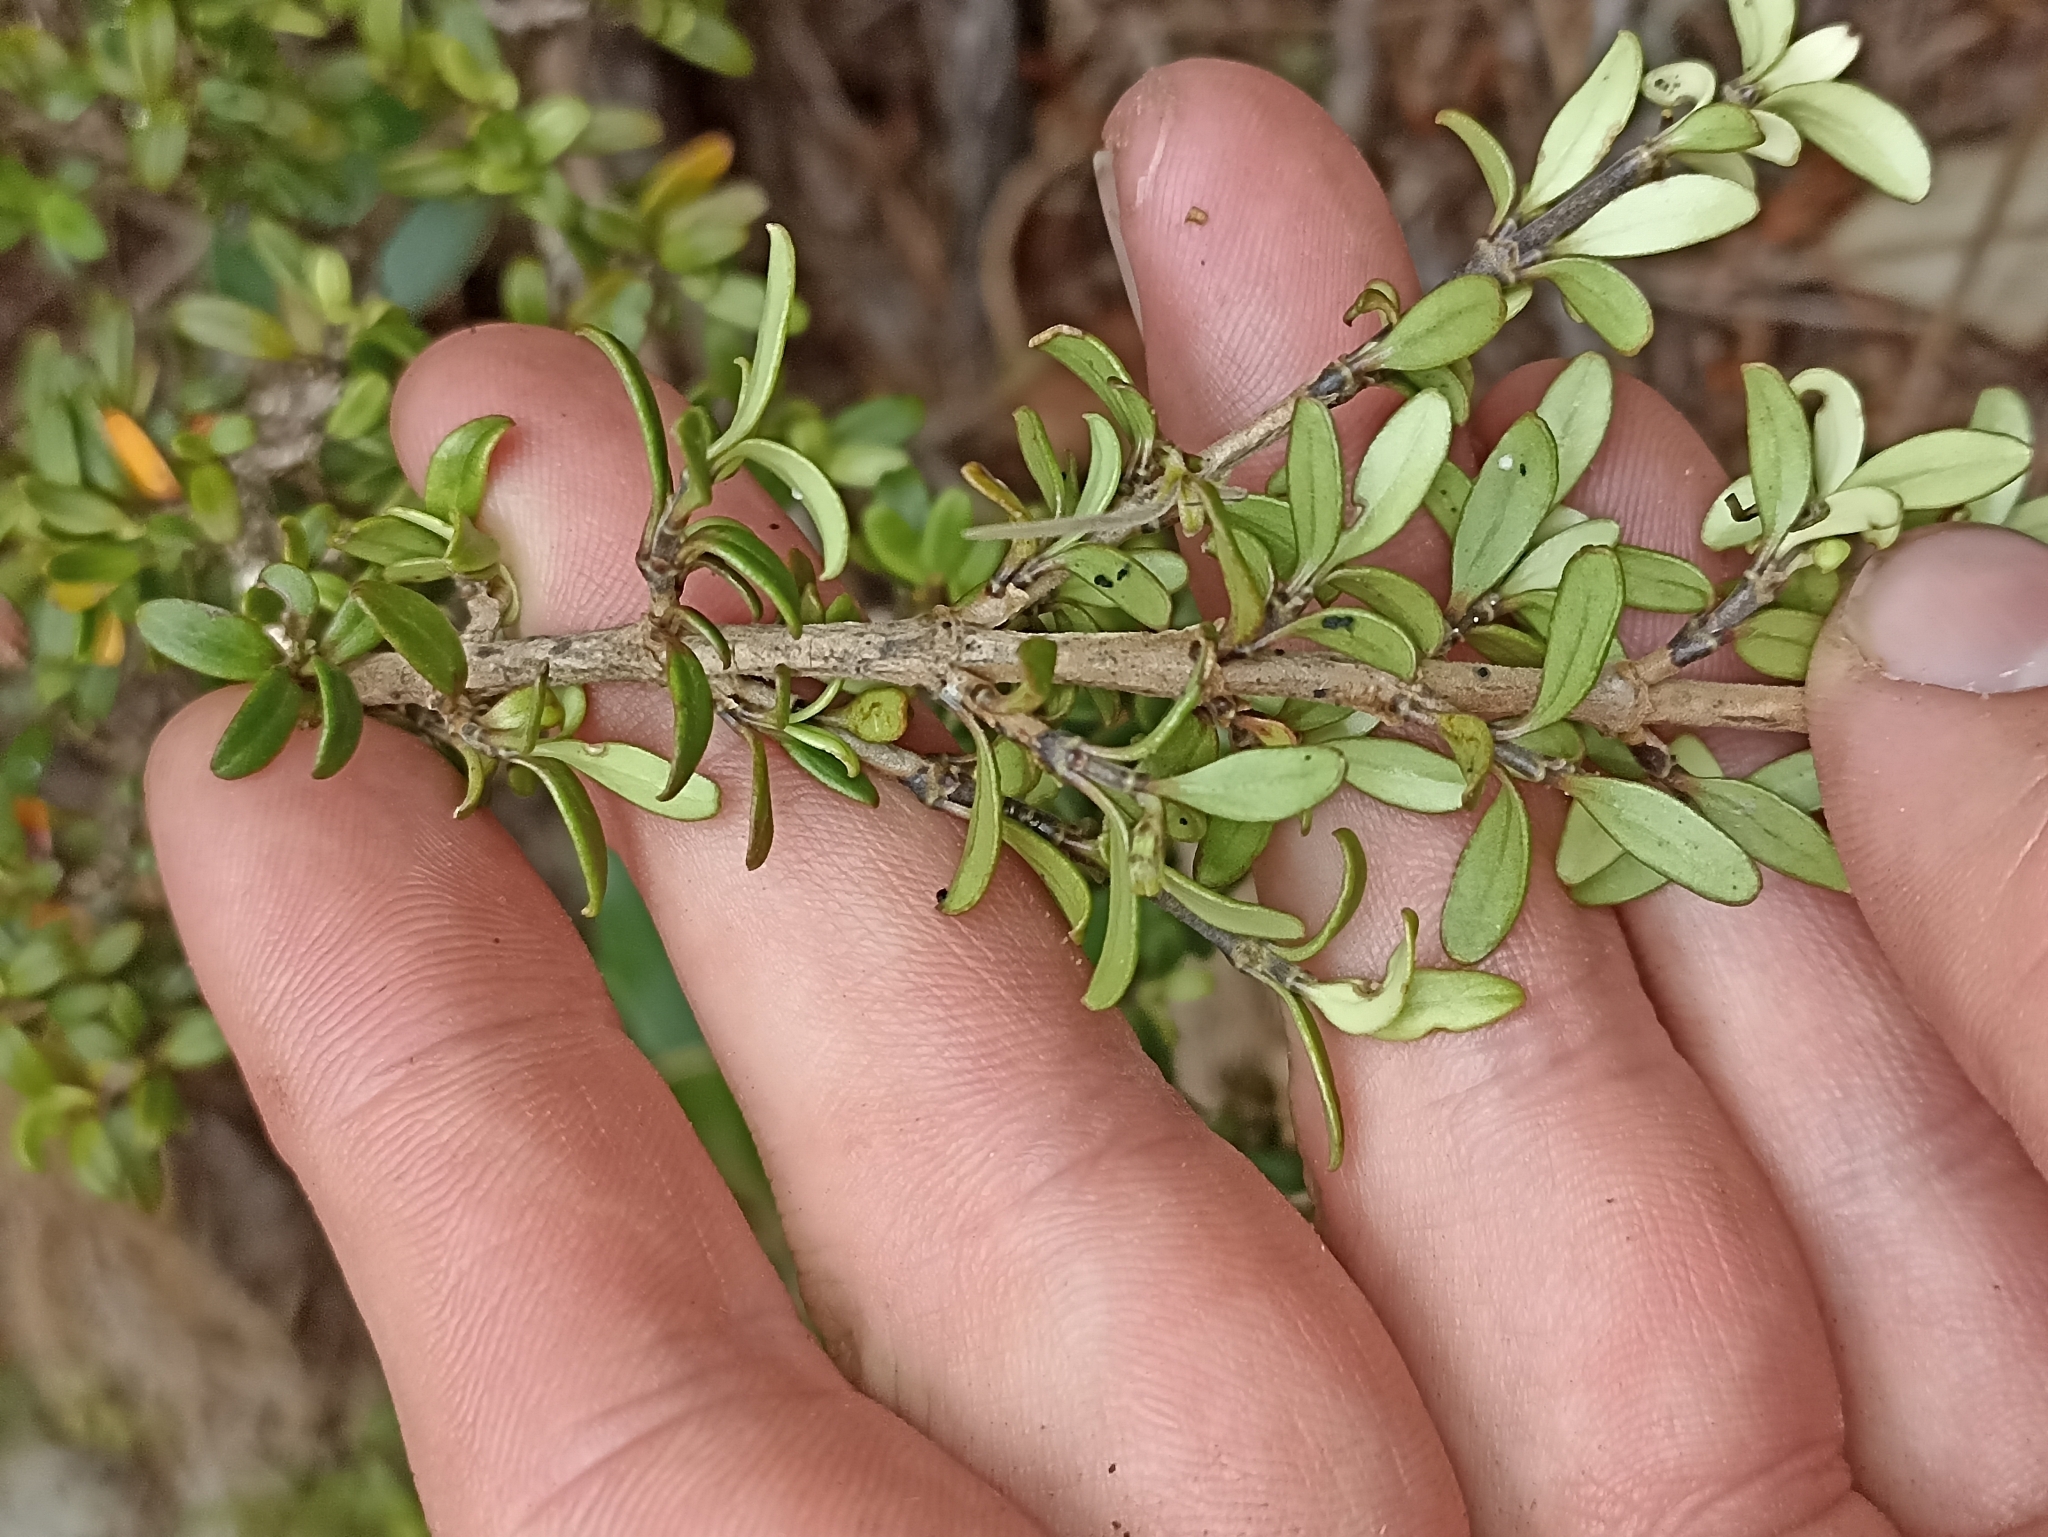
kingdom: Plantae
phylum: Tracheophyta
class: Magnoliopsida
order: Gentianales
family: Rubiaceae
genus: Coprosma
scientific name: Coprosma crenulata
